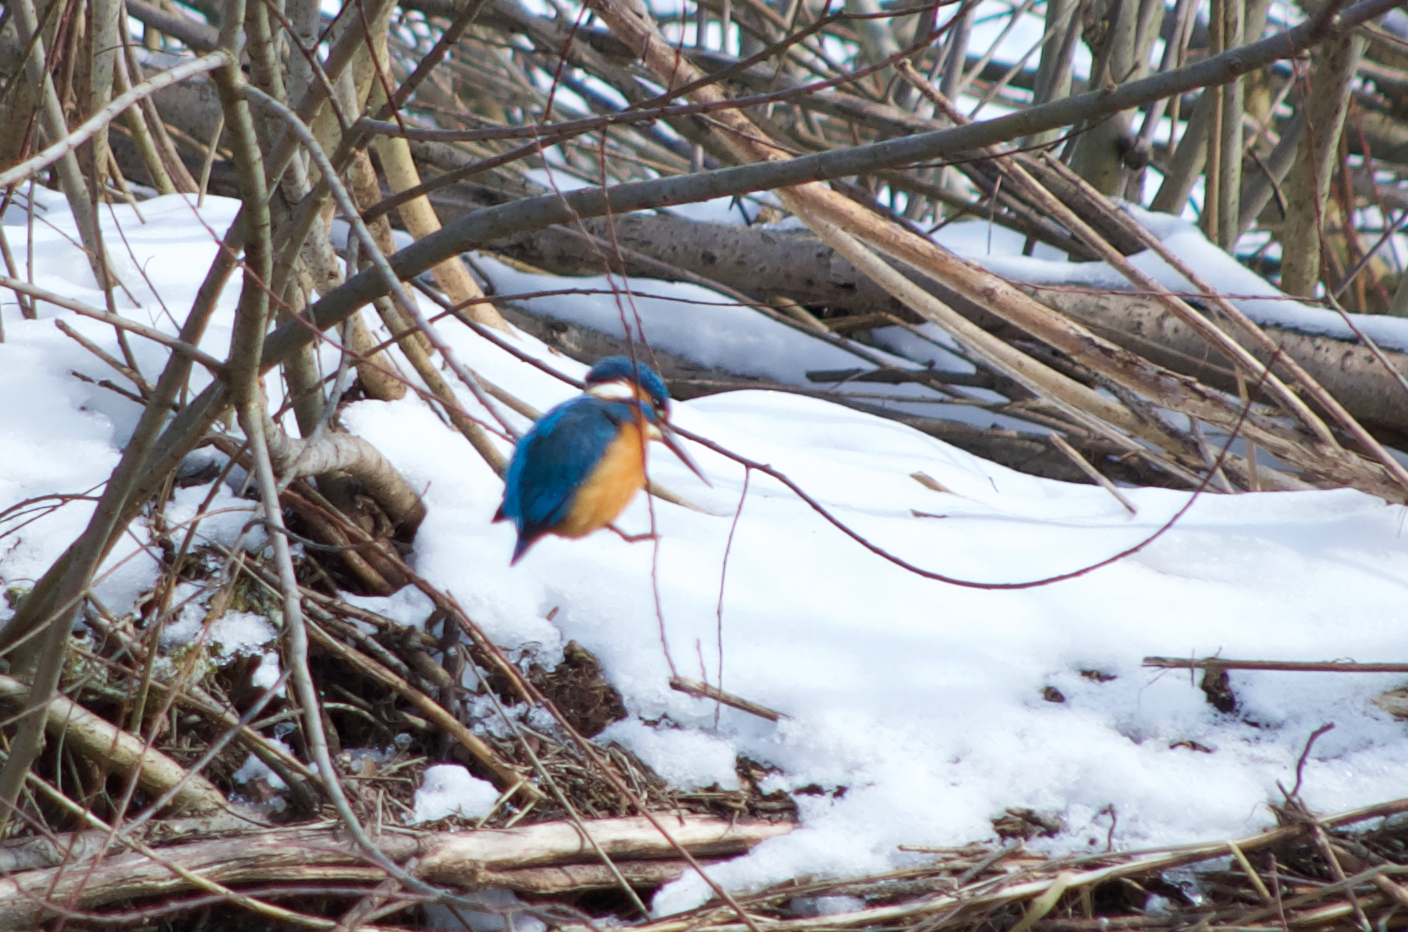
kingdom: Animalia
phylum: Chordata
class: Aves
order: Coraciiformes
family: Alcedinidae
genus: Alcedo
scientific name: Alcedo atthis
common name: Common kingfisher
